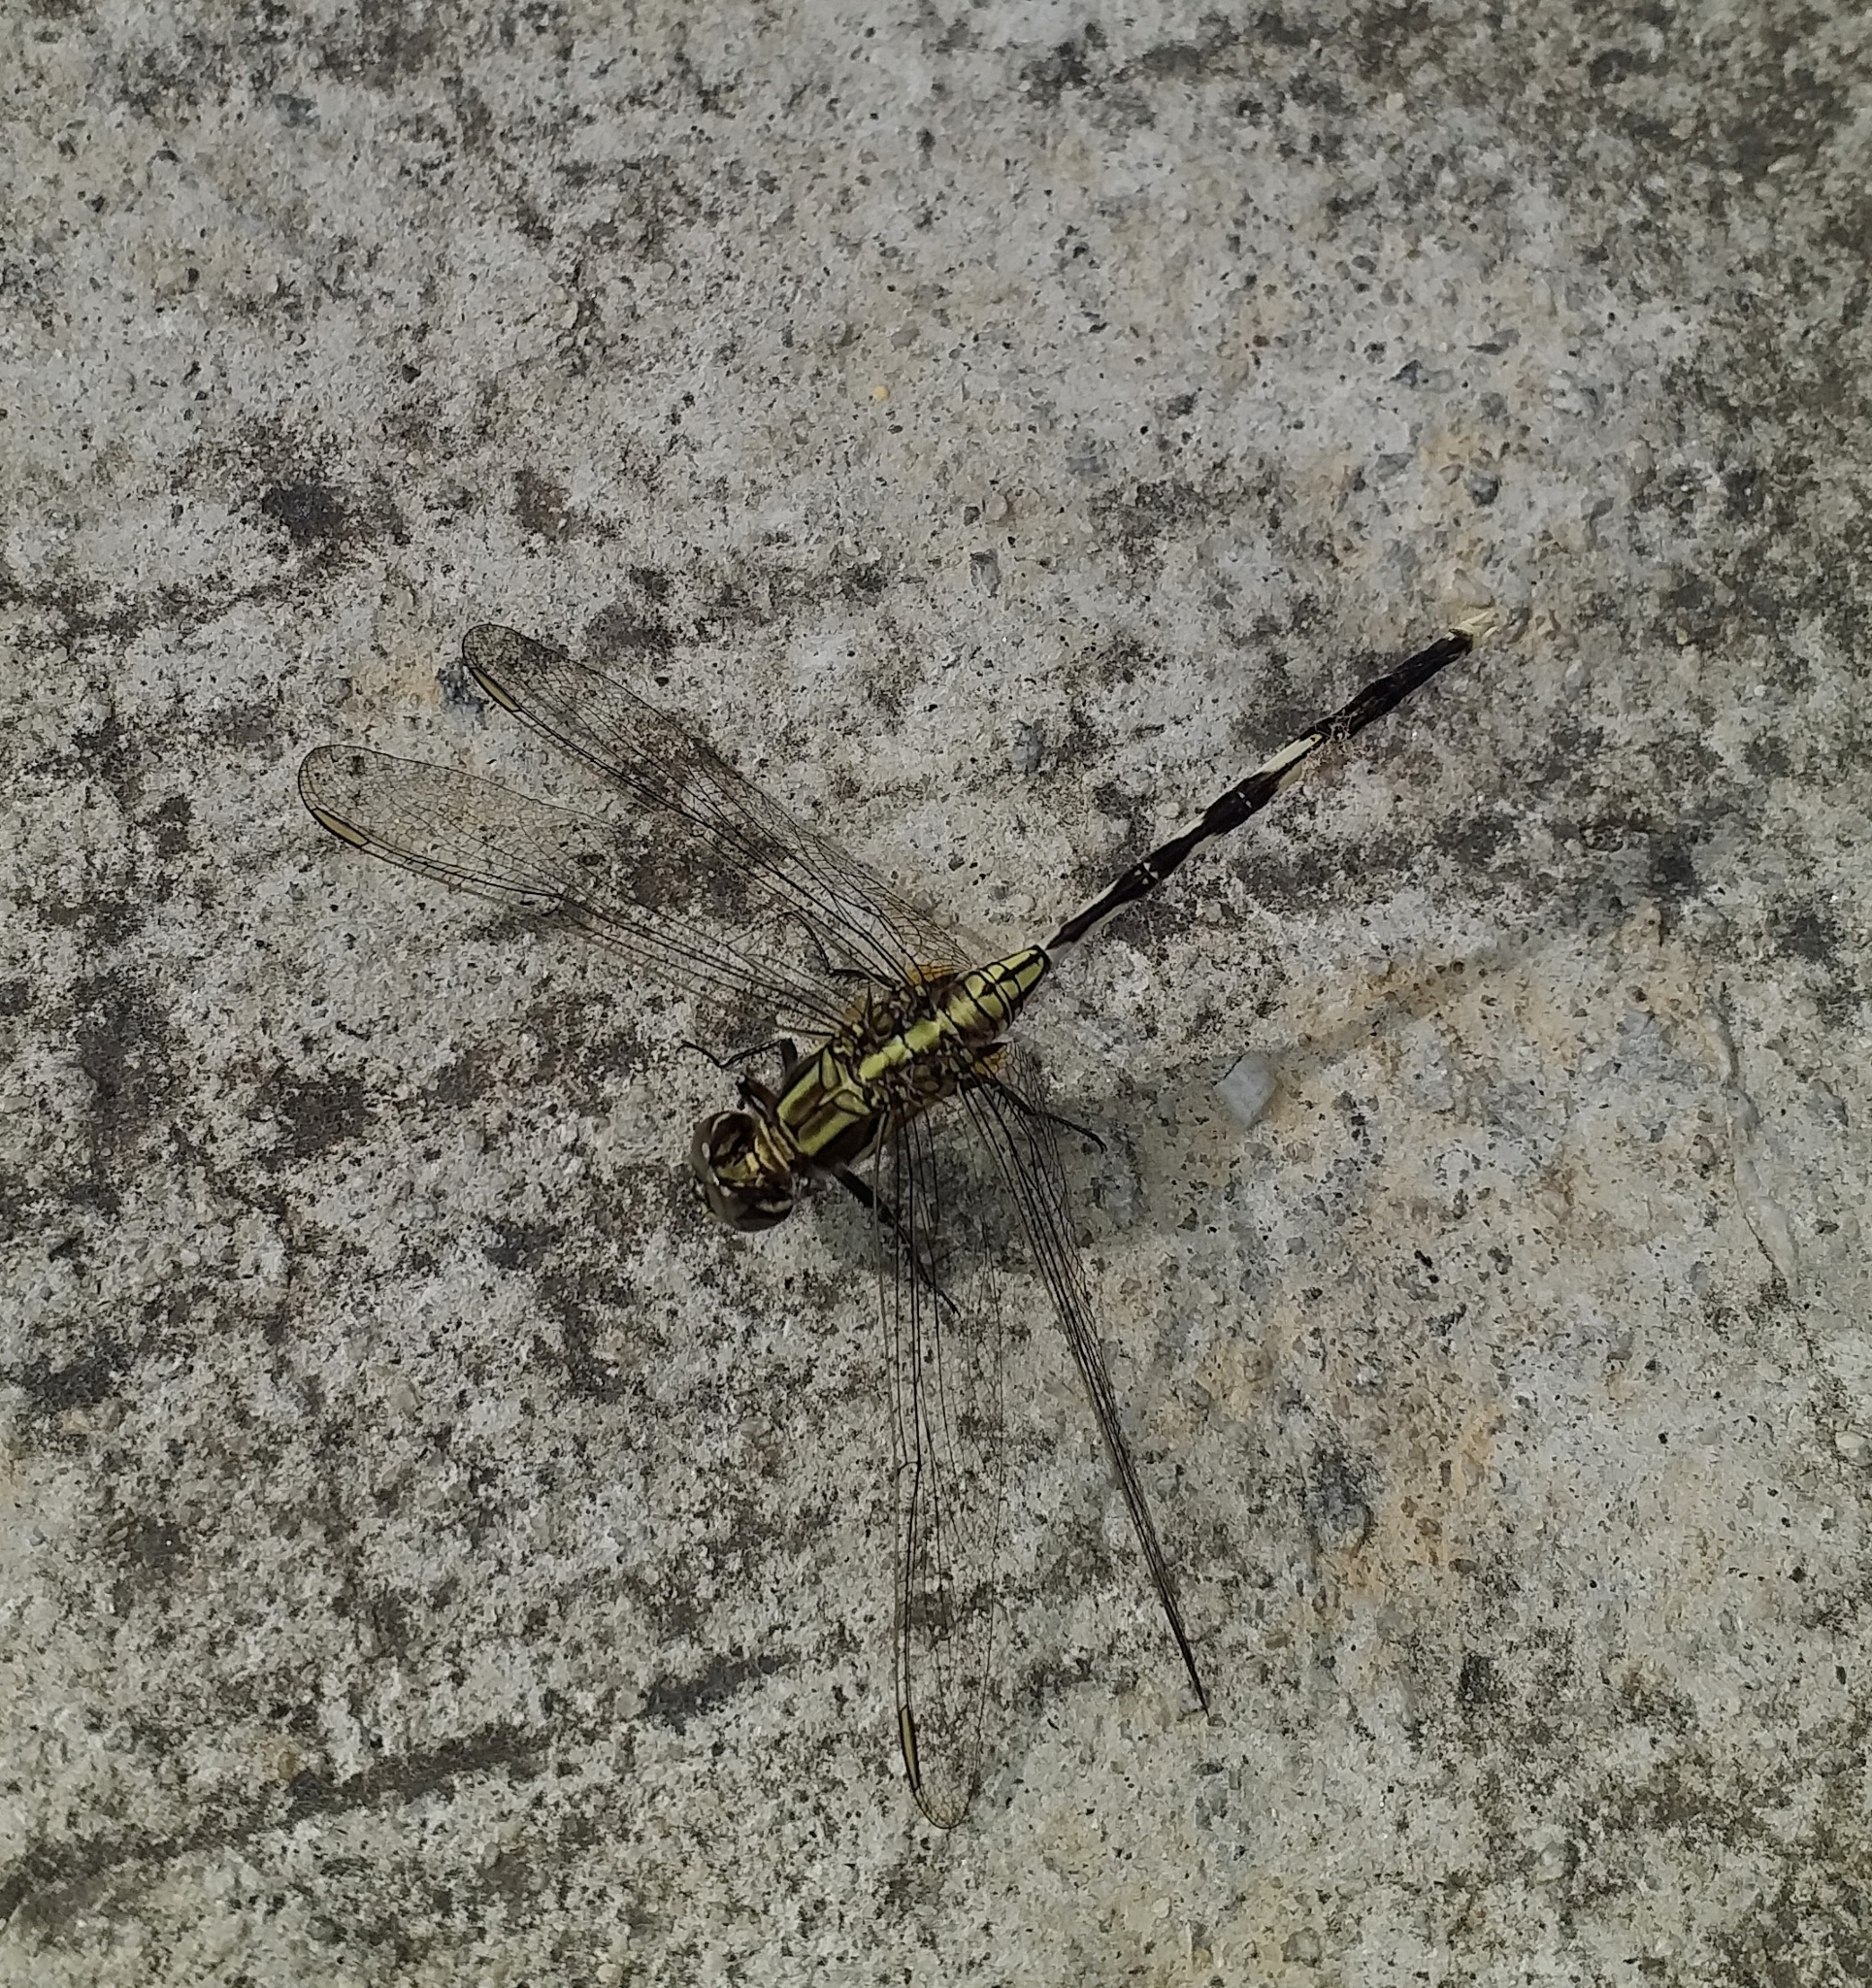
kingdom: Animalia
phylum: Arthropoda
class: Insecta
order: Odonata
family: Libellulidae
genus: Orthetrum
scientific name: Orthetrum sabina
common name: Slender skimmer
